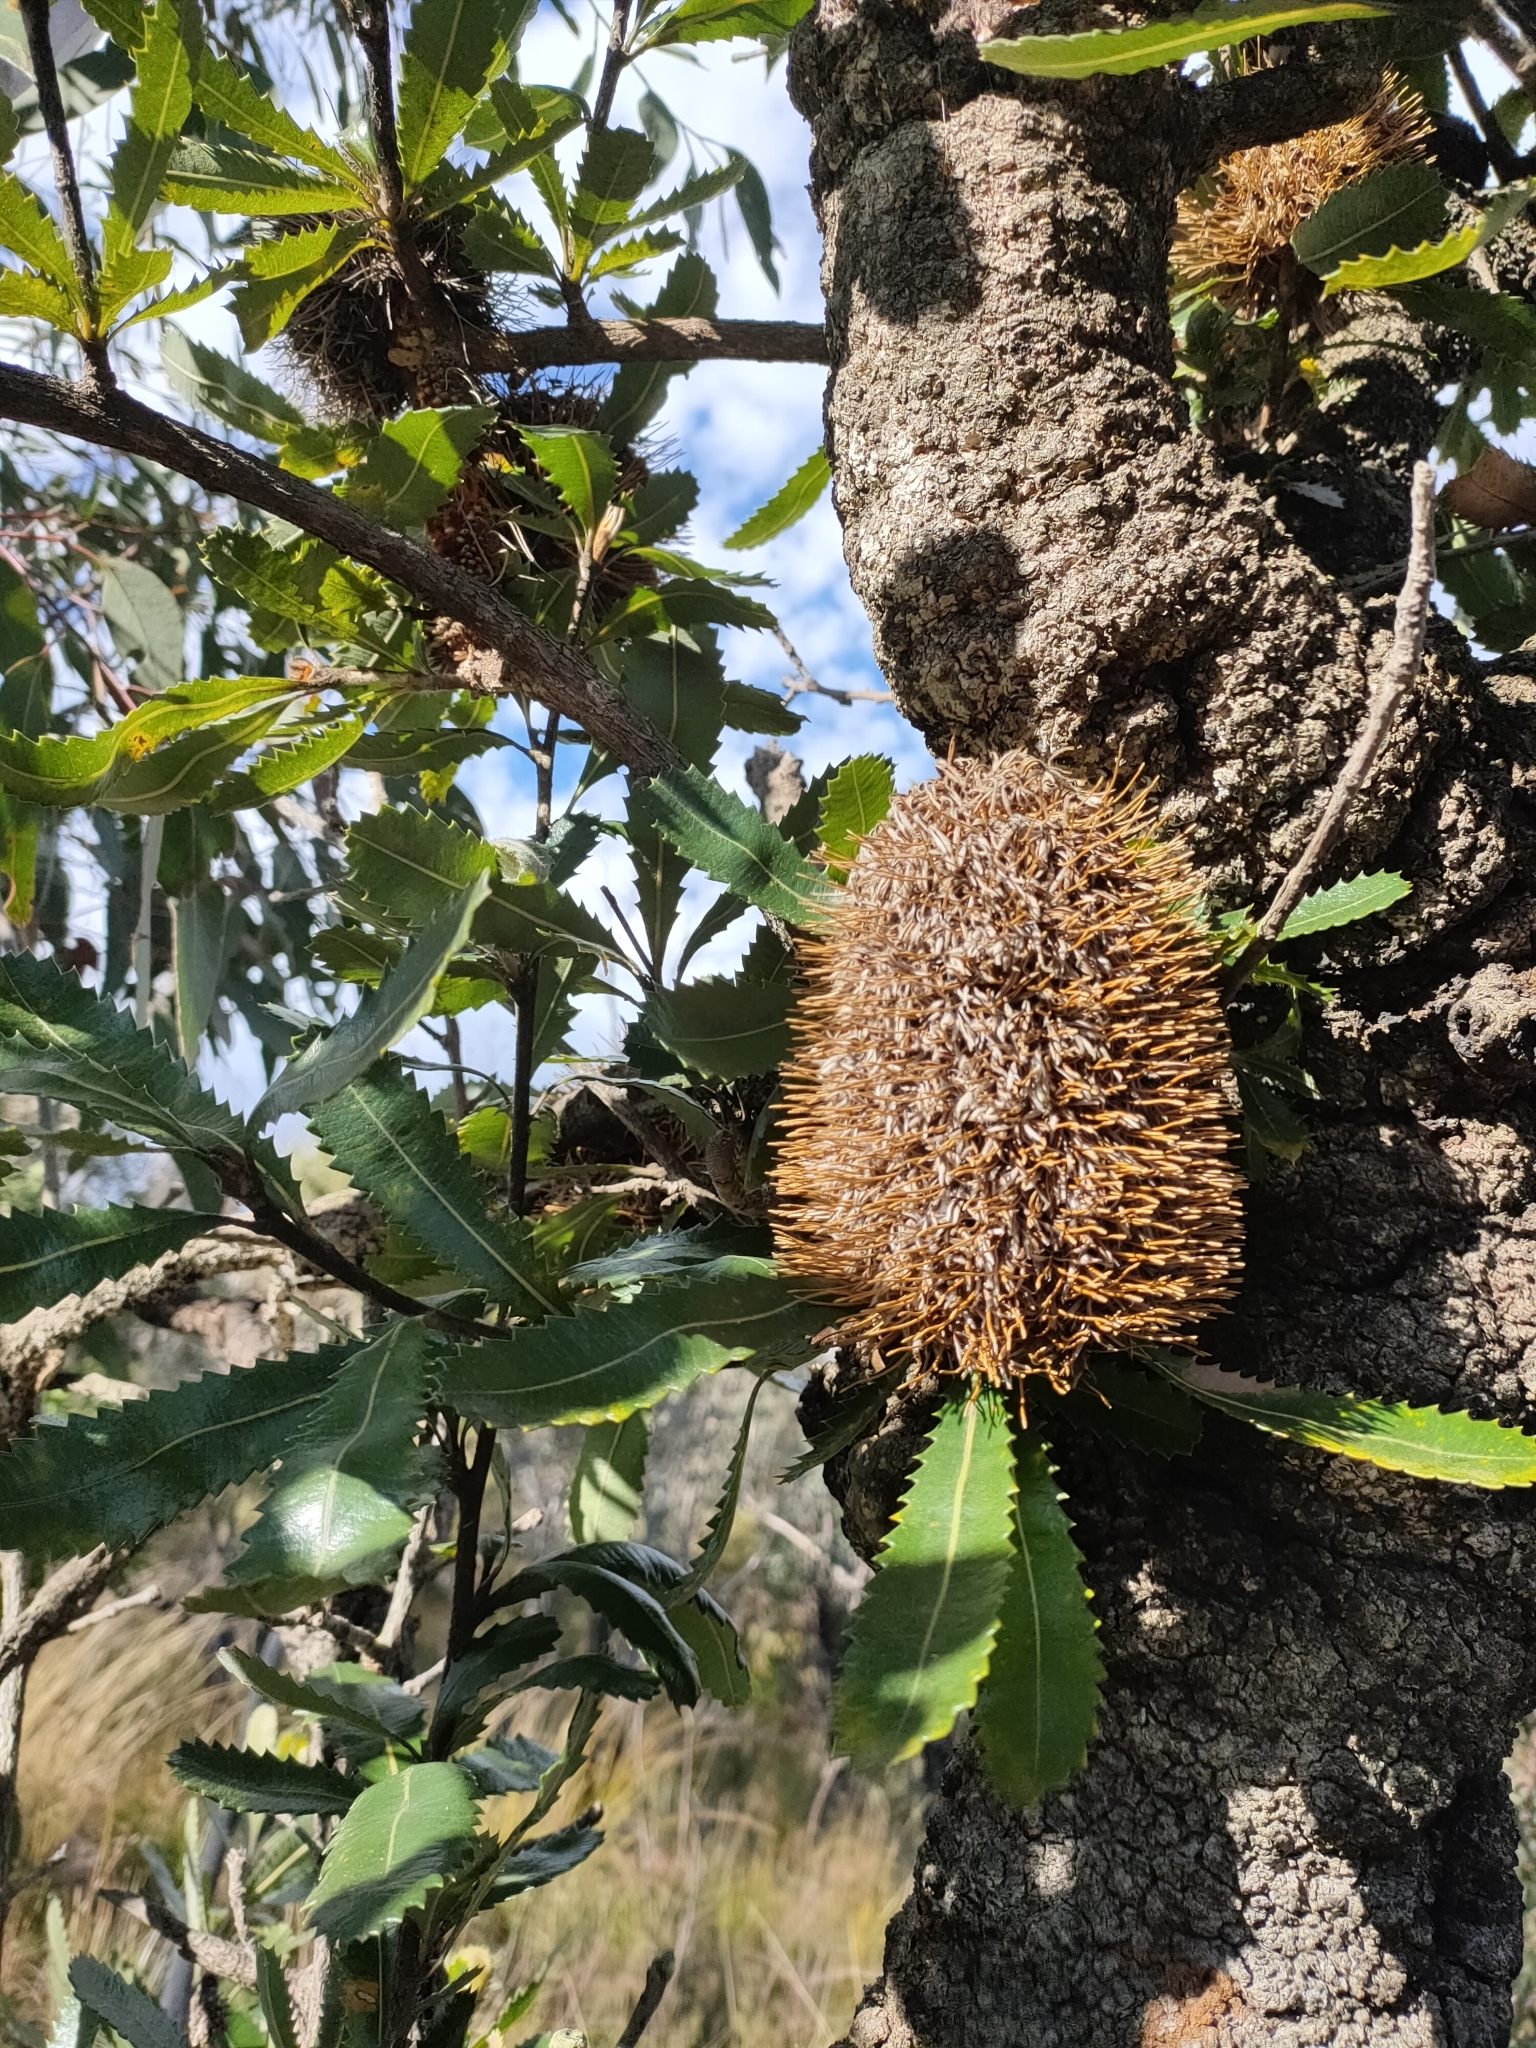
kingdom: Plantae
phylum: Tracheophyta
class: Magnoliopsida
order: Proteales
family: Proteaceae
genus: Banksia
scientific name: Banksia serrata
